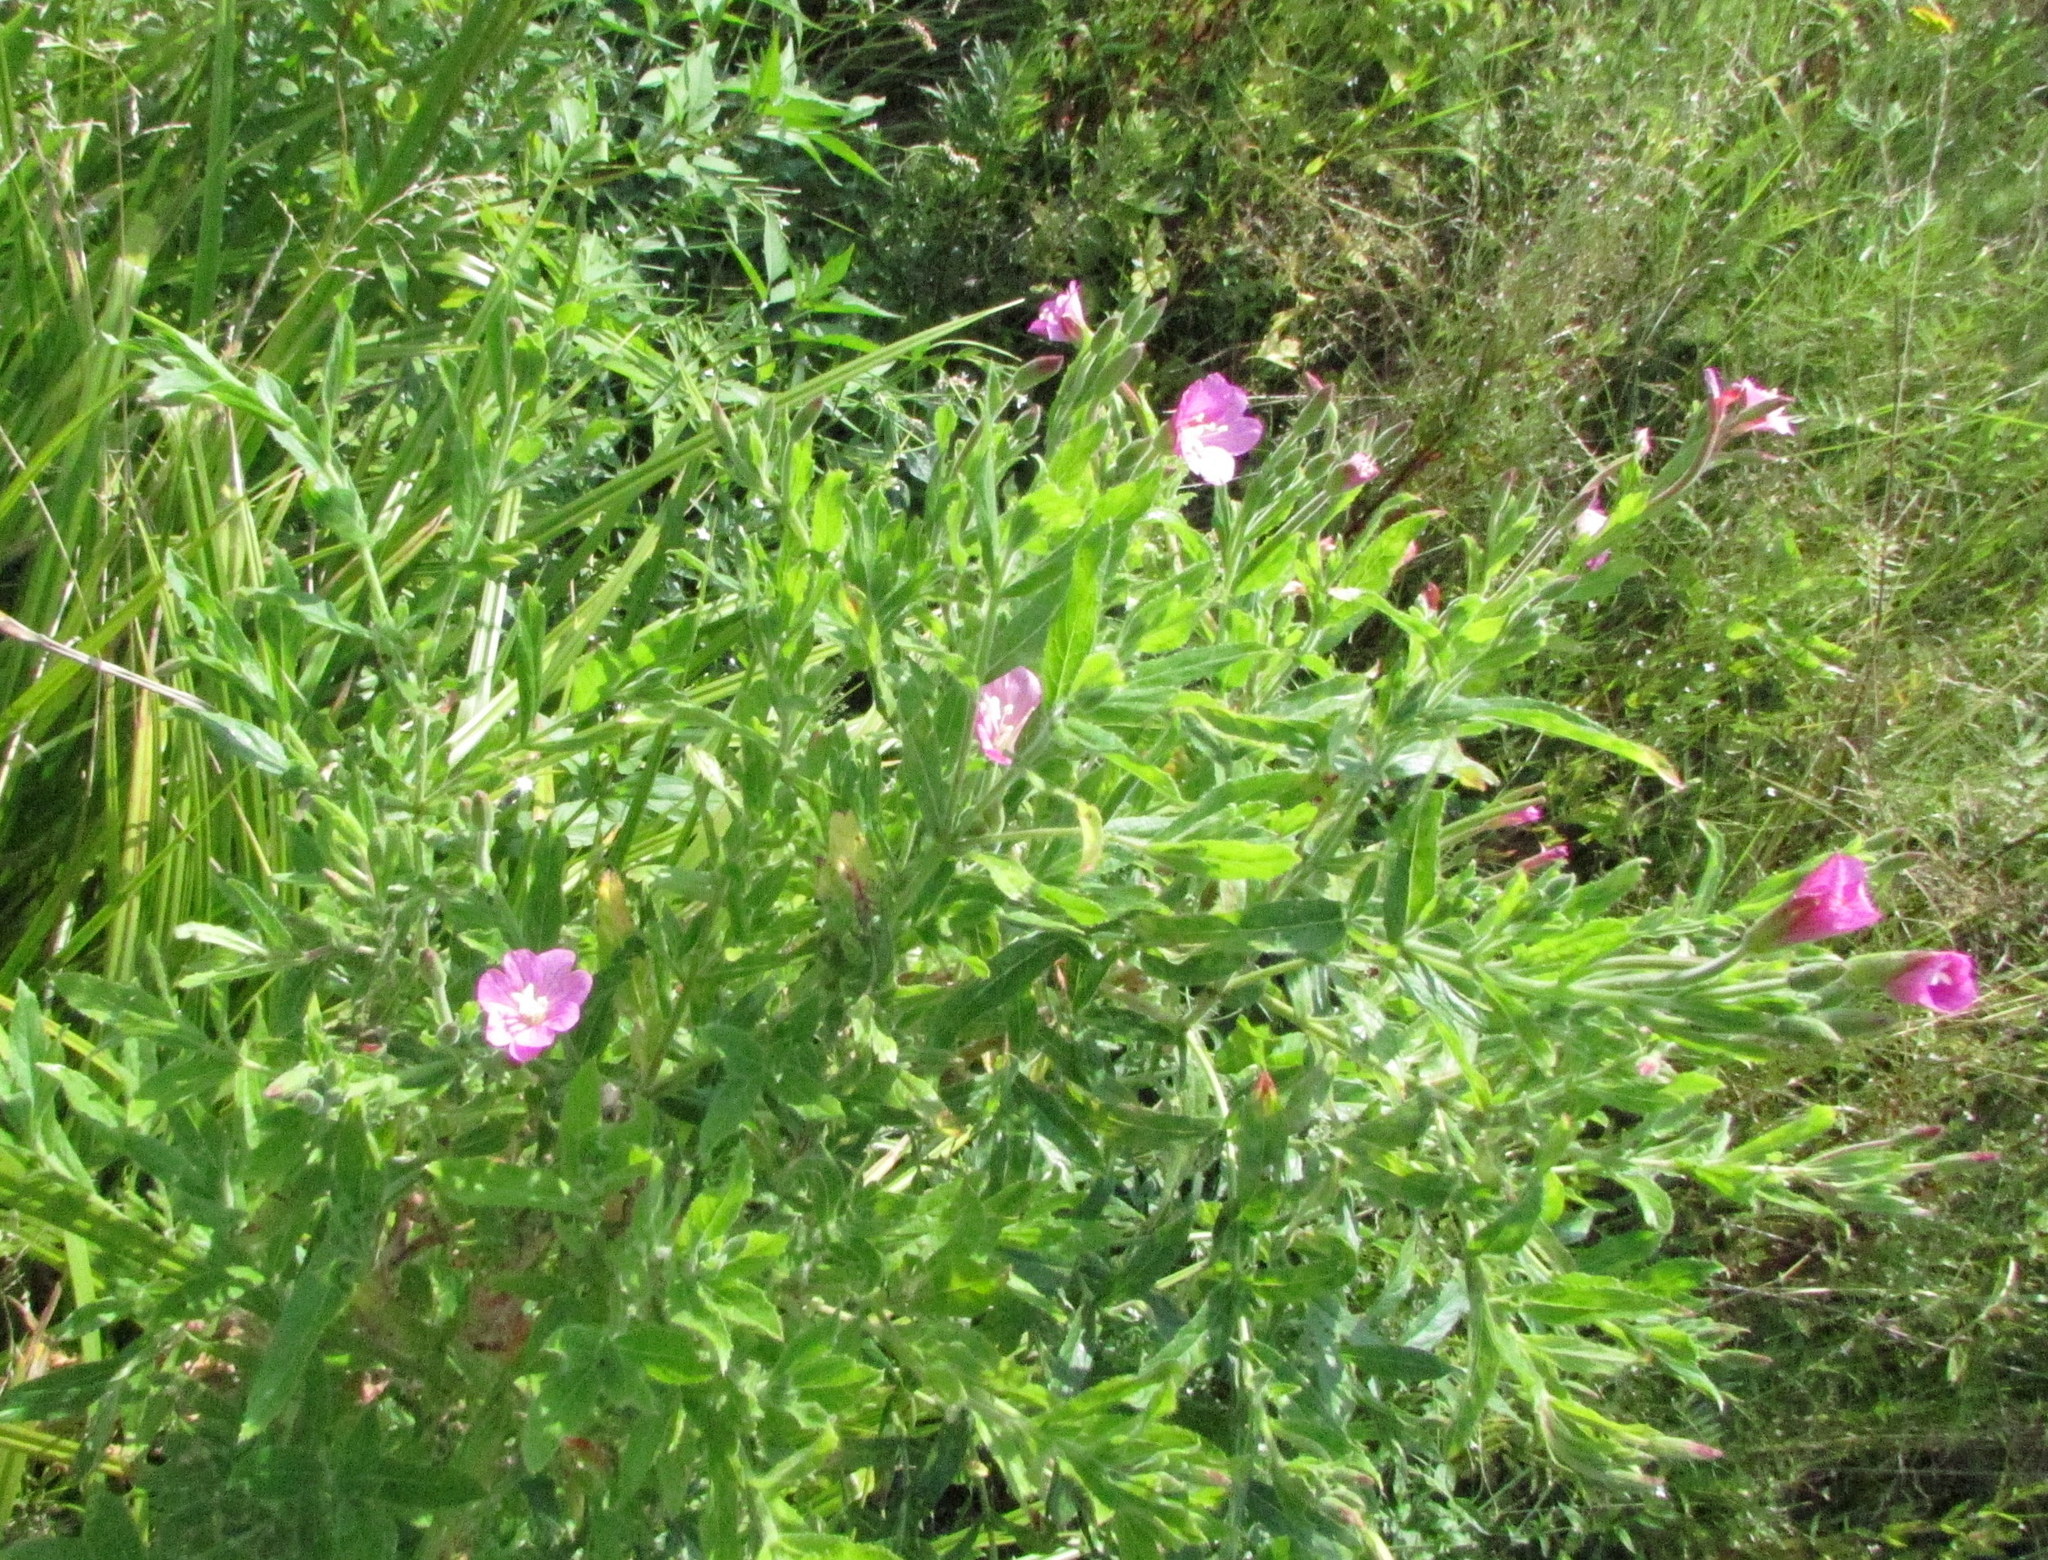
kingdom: Plantae
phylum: Tracheophyta
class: Magnoliopsida
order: Myrtales
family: Onagraceae
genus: Epilobium
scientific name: Epilobium hirsutum
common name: Great willowherb
